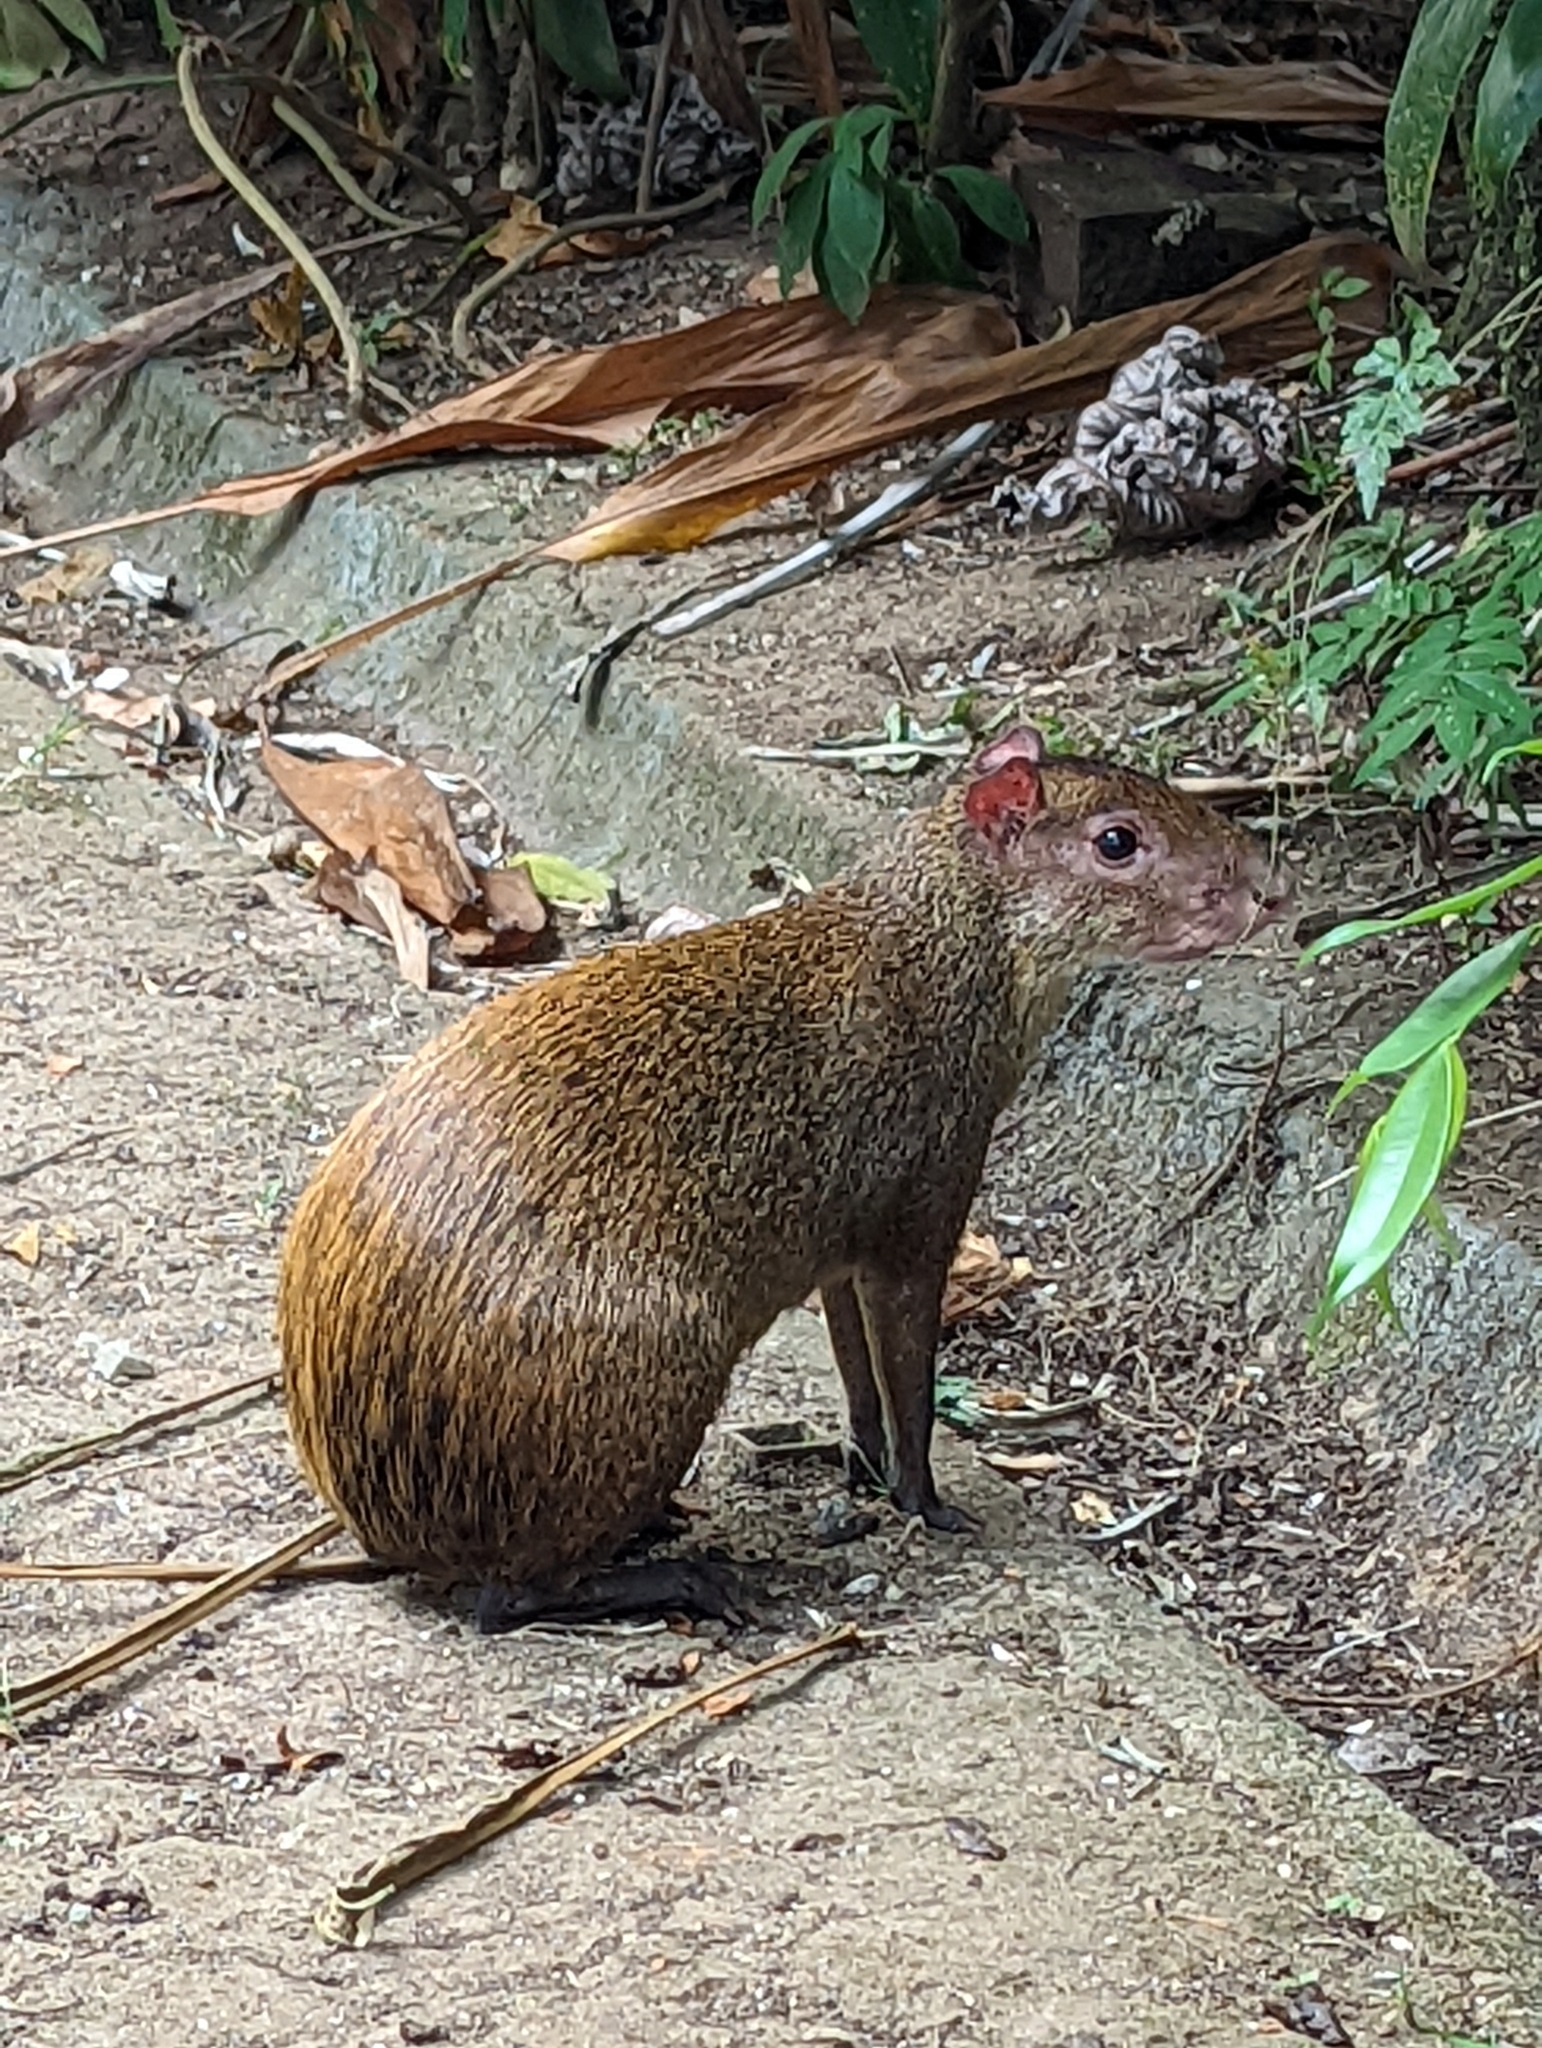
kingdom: Animalia
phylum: Chordata
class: Mammalia
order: Rodentia
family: Dasyproctidae
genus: Dasyprocta
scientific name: Dasyprocta punctata
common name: Central american agouti
